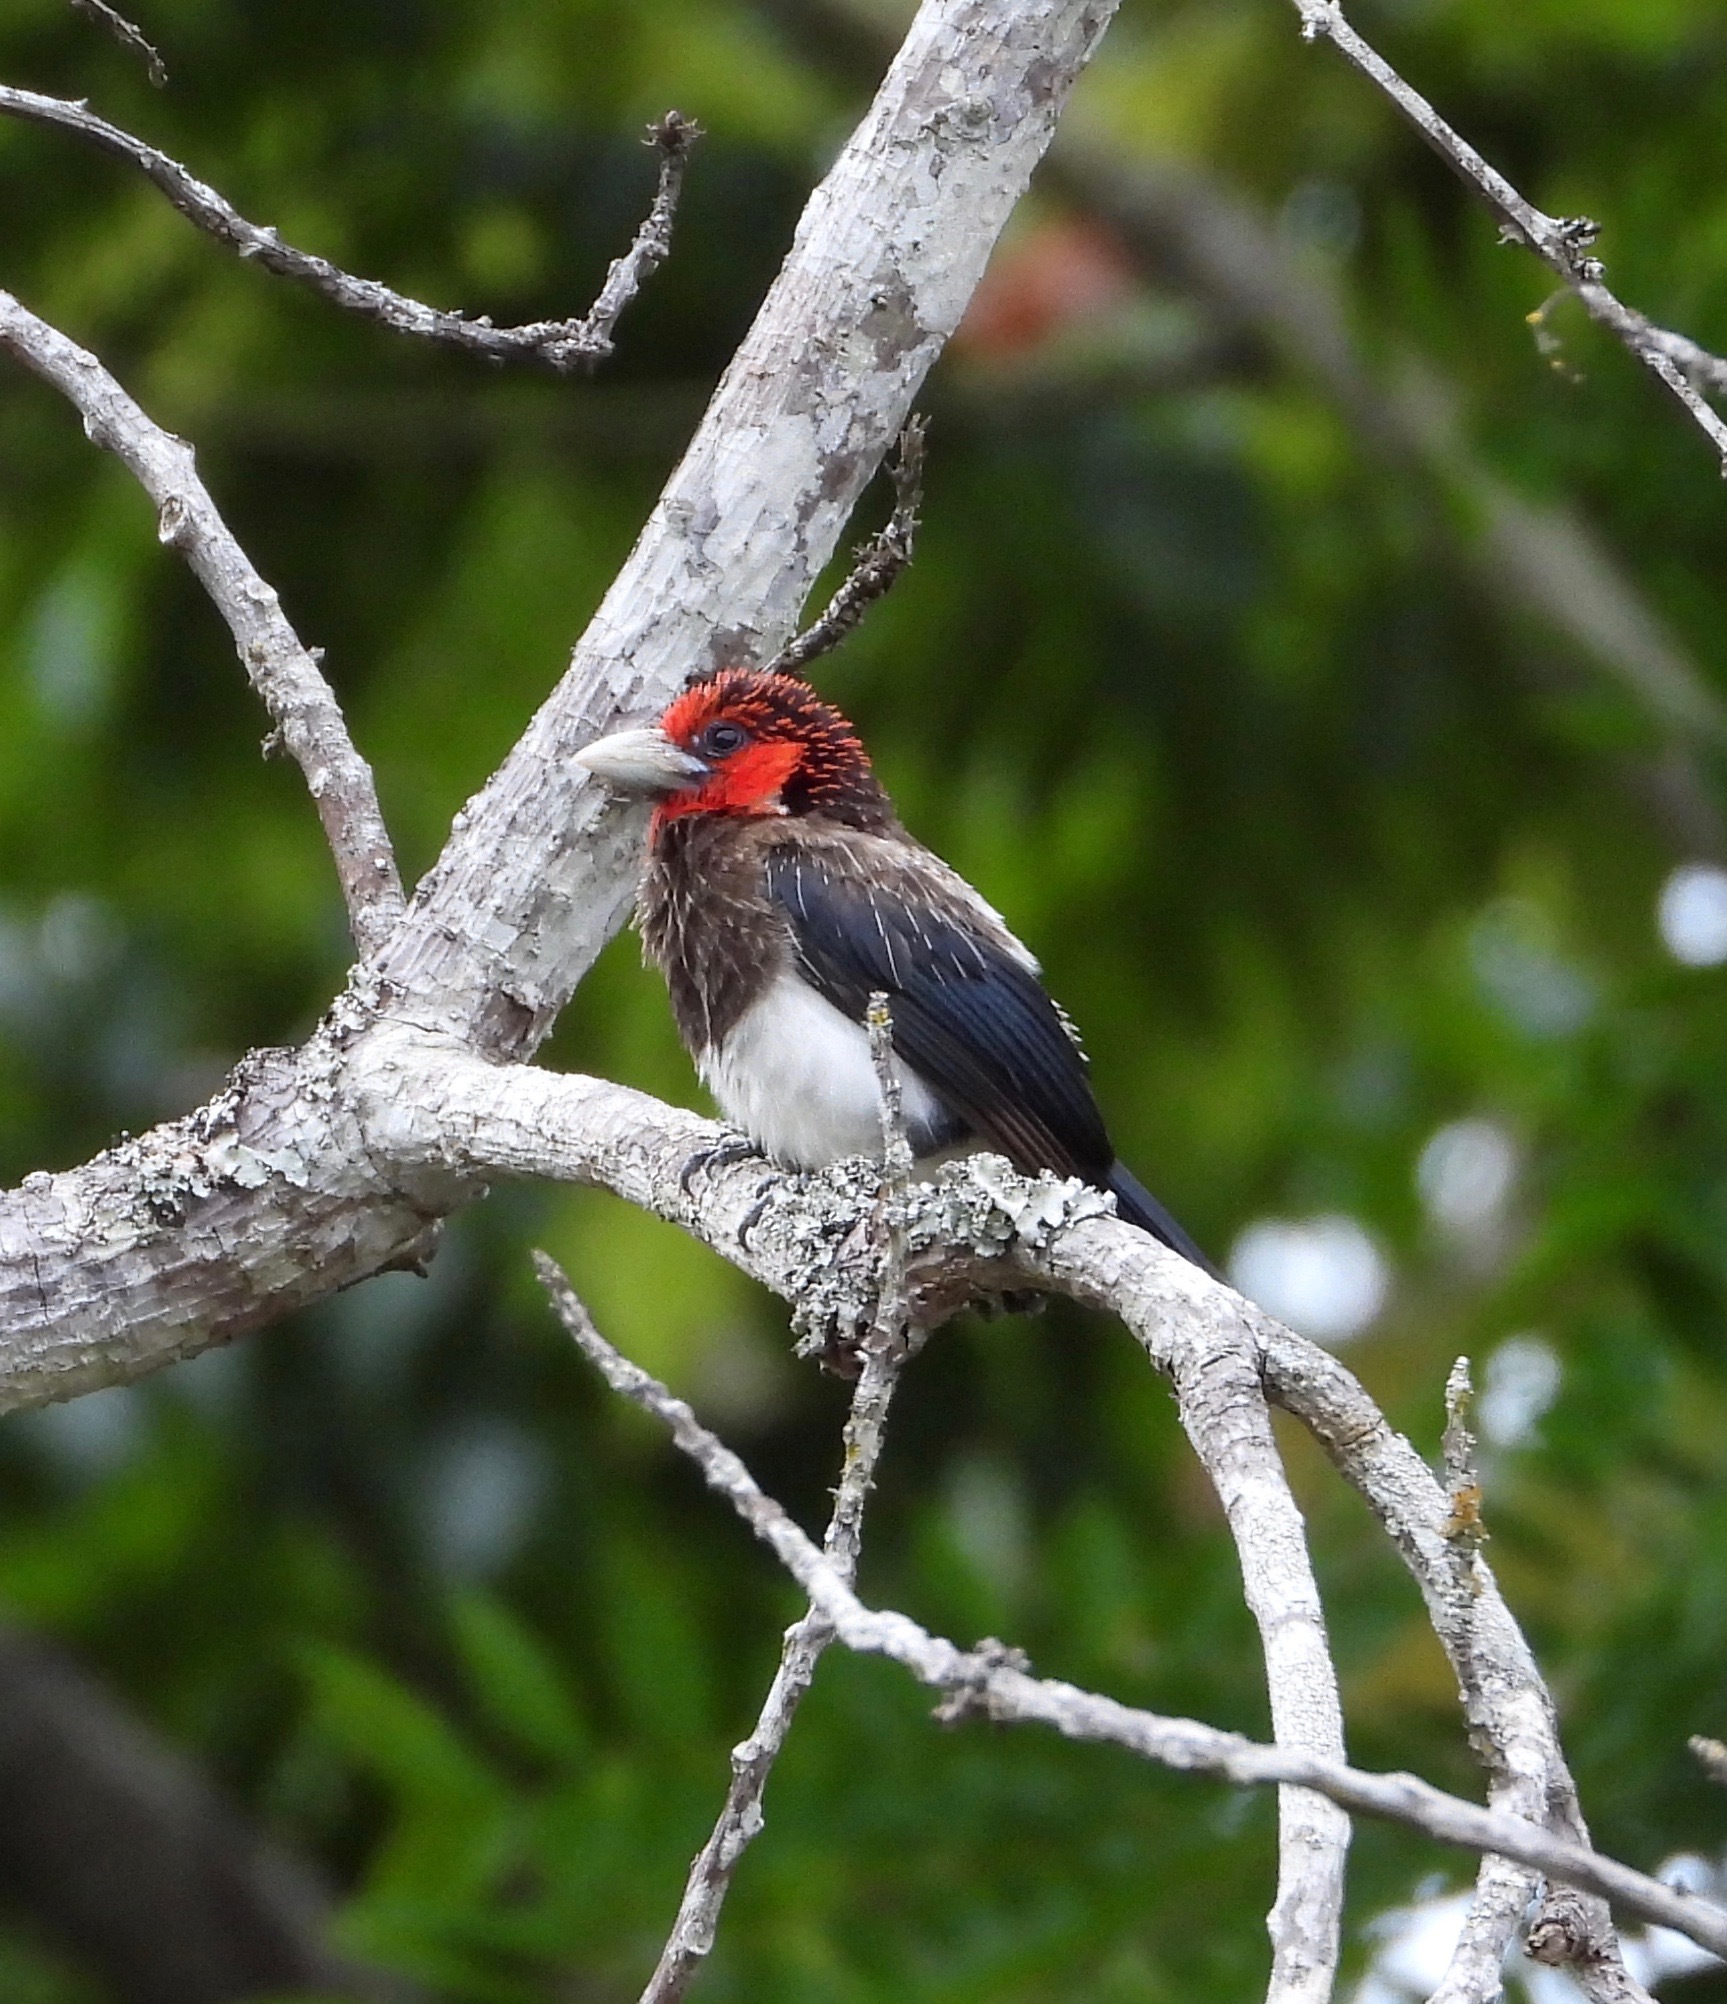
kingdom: Animalia
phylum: Chordata
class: Aves
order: Piciformes
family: Lybiidae
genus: Lybius
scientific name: Lybius melanopterus
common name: Brown-breasted barbet
